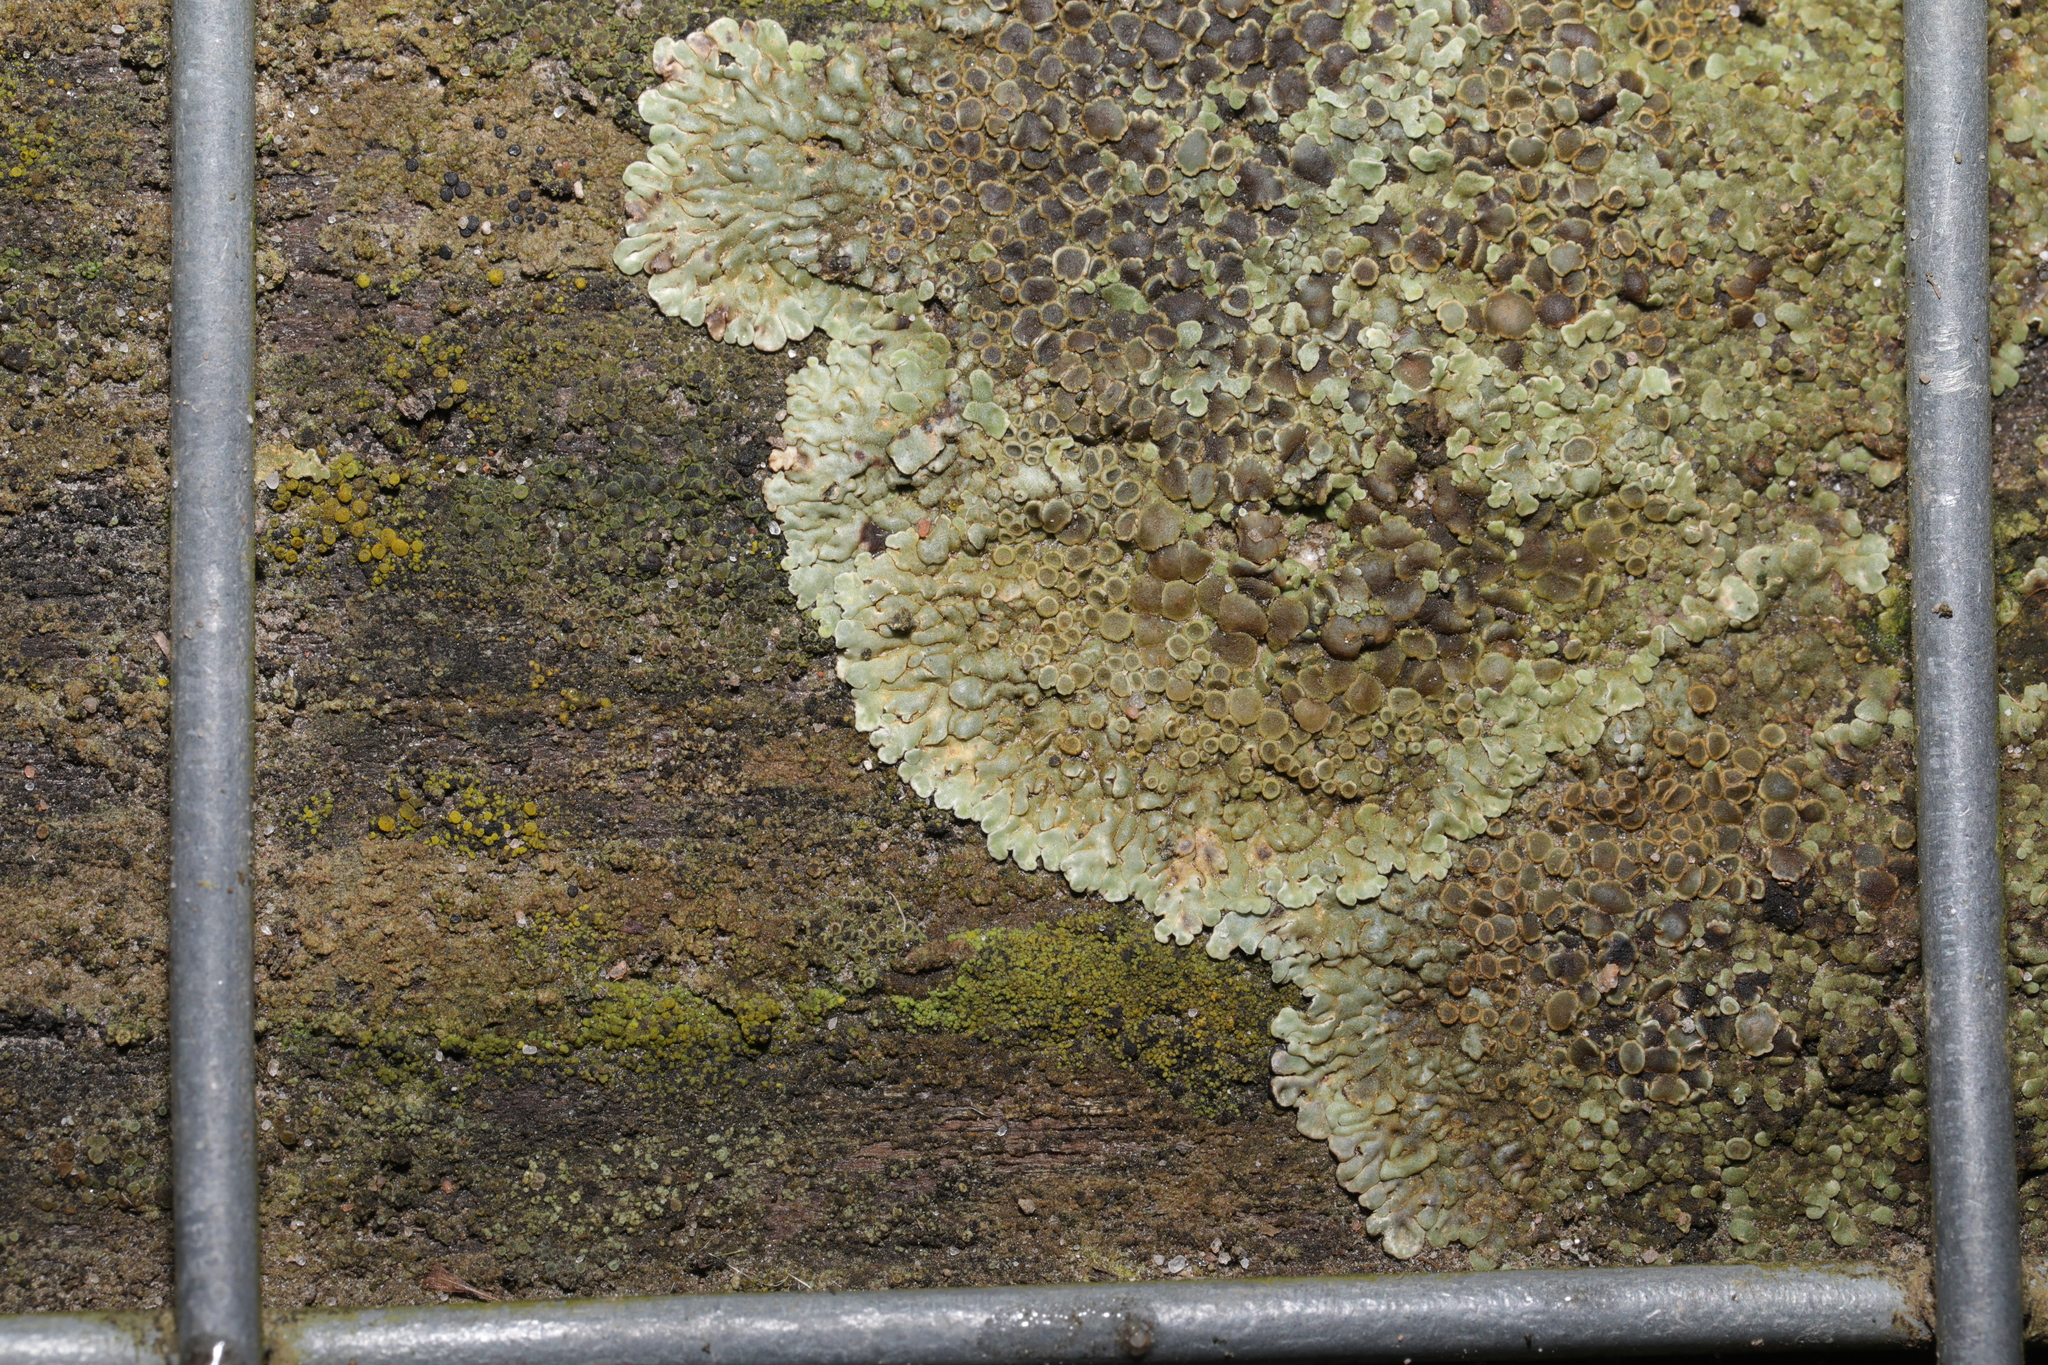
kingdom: Fungi
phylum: Ascomycota
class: Lecanoromycetes
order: Lecanorales
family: Lecanoraceae
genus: Protoparmeliopsis
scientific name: Protoparmeliopsis muralis
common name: Stonewall rim lichen
